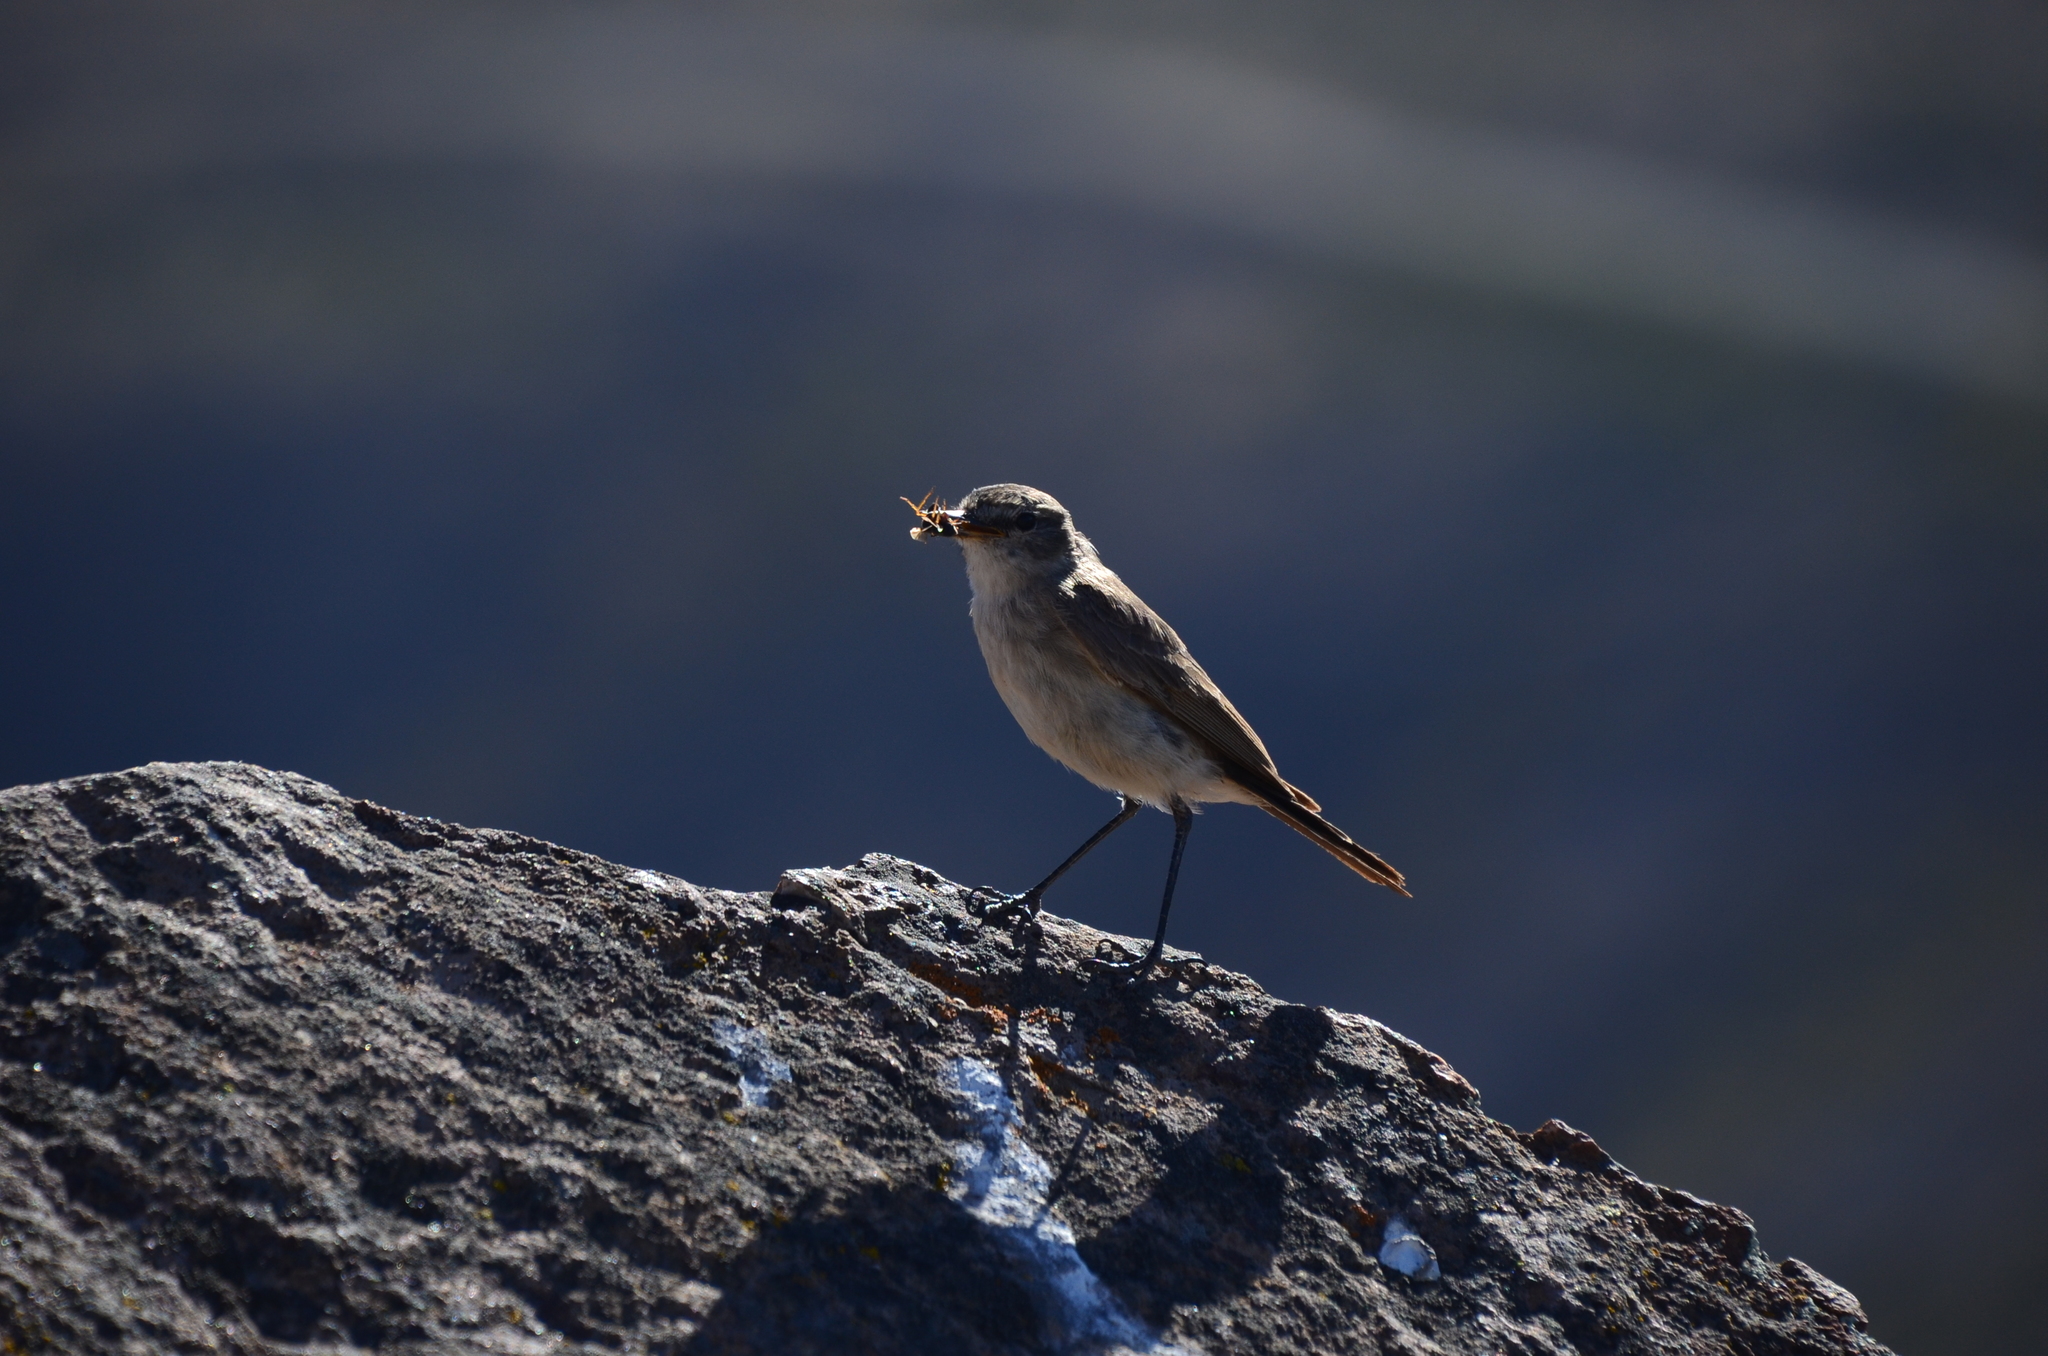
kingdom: Animalia
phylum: Chordata
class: Aves
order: Passeriformes
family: Tyrannidae
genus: Muscisaxicola
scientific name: Muscisaxicola maculirostris
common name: Spot-billed ground tyrant
